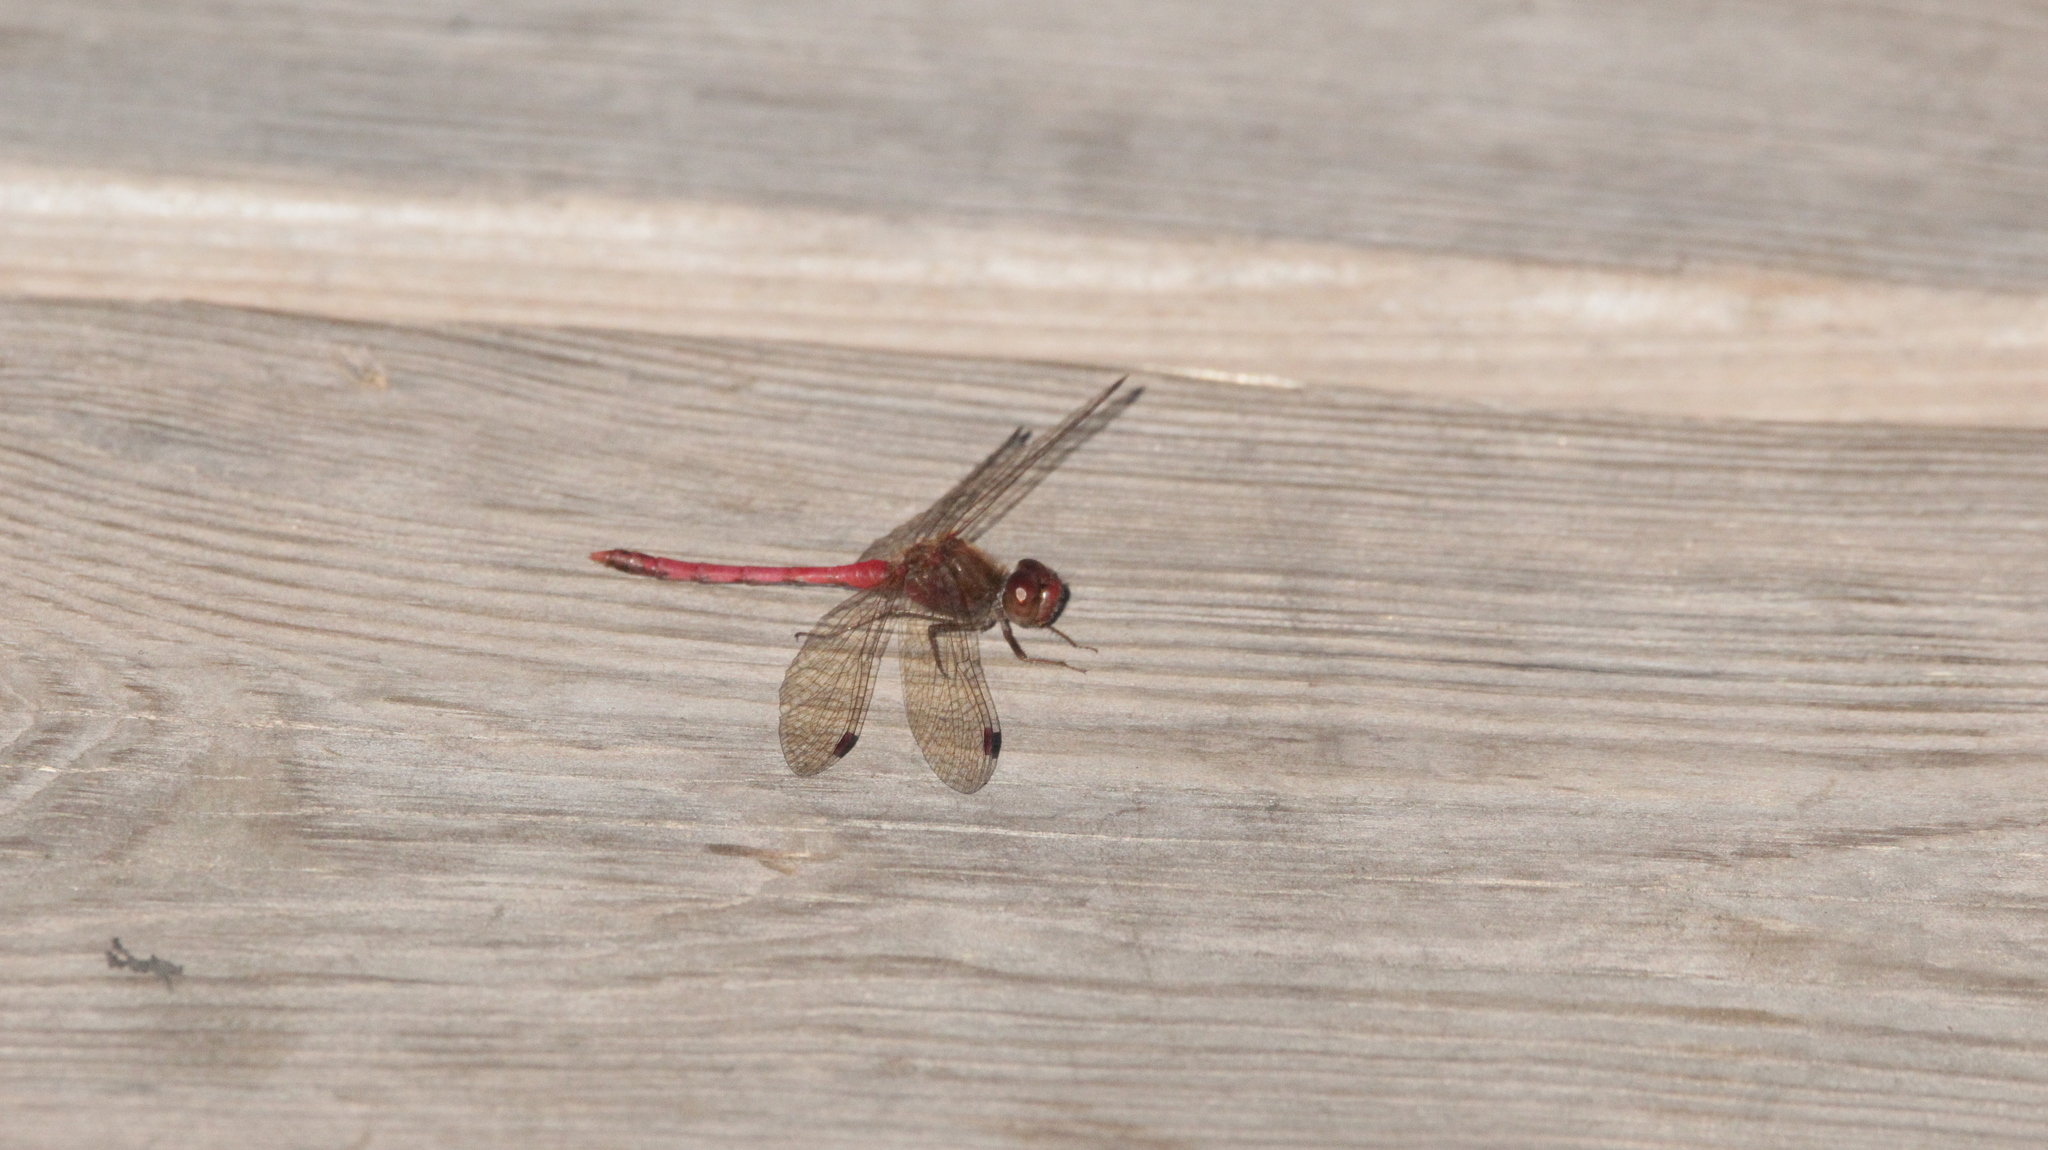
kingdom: Animalia
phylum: Arthropoda
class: Insecta
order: Odonata
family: Libellulidae
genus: Sympetrum
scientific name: Sympetrum vicinum
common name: Autumn meadowhawk
